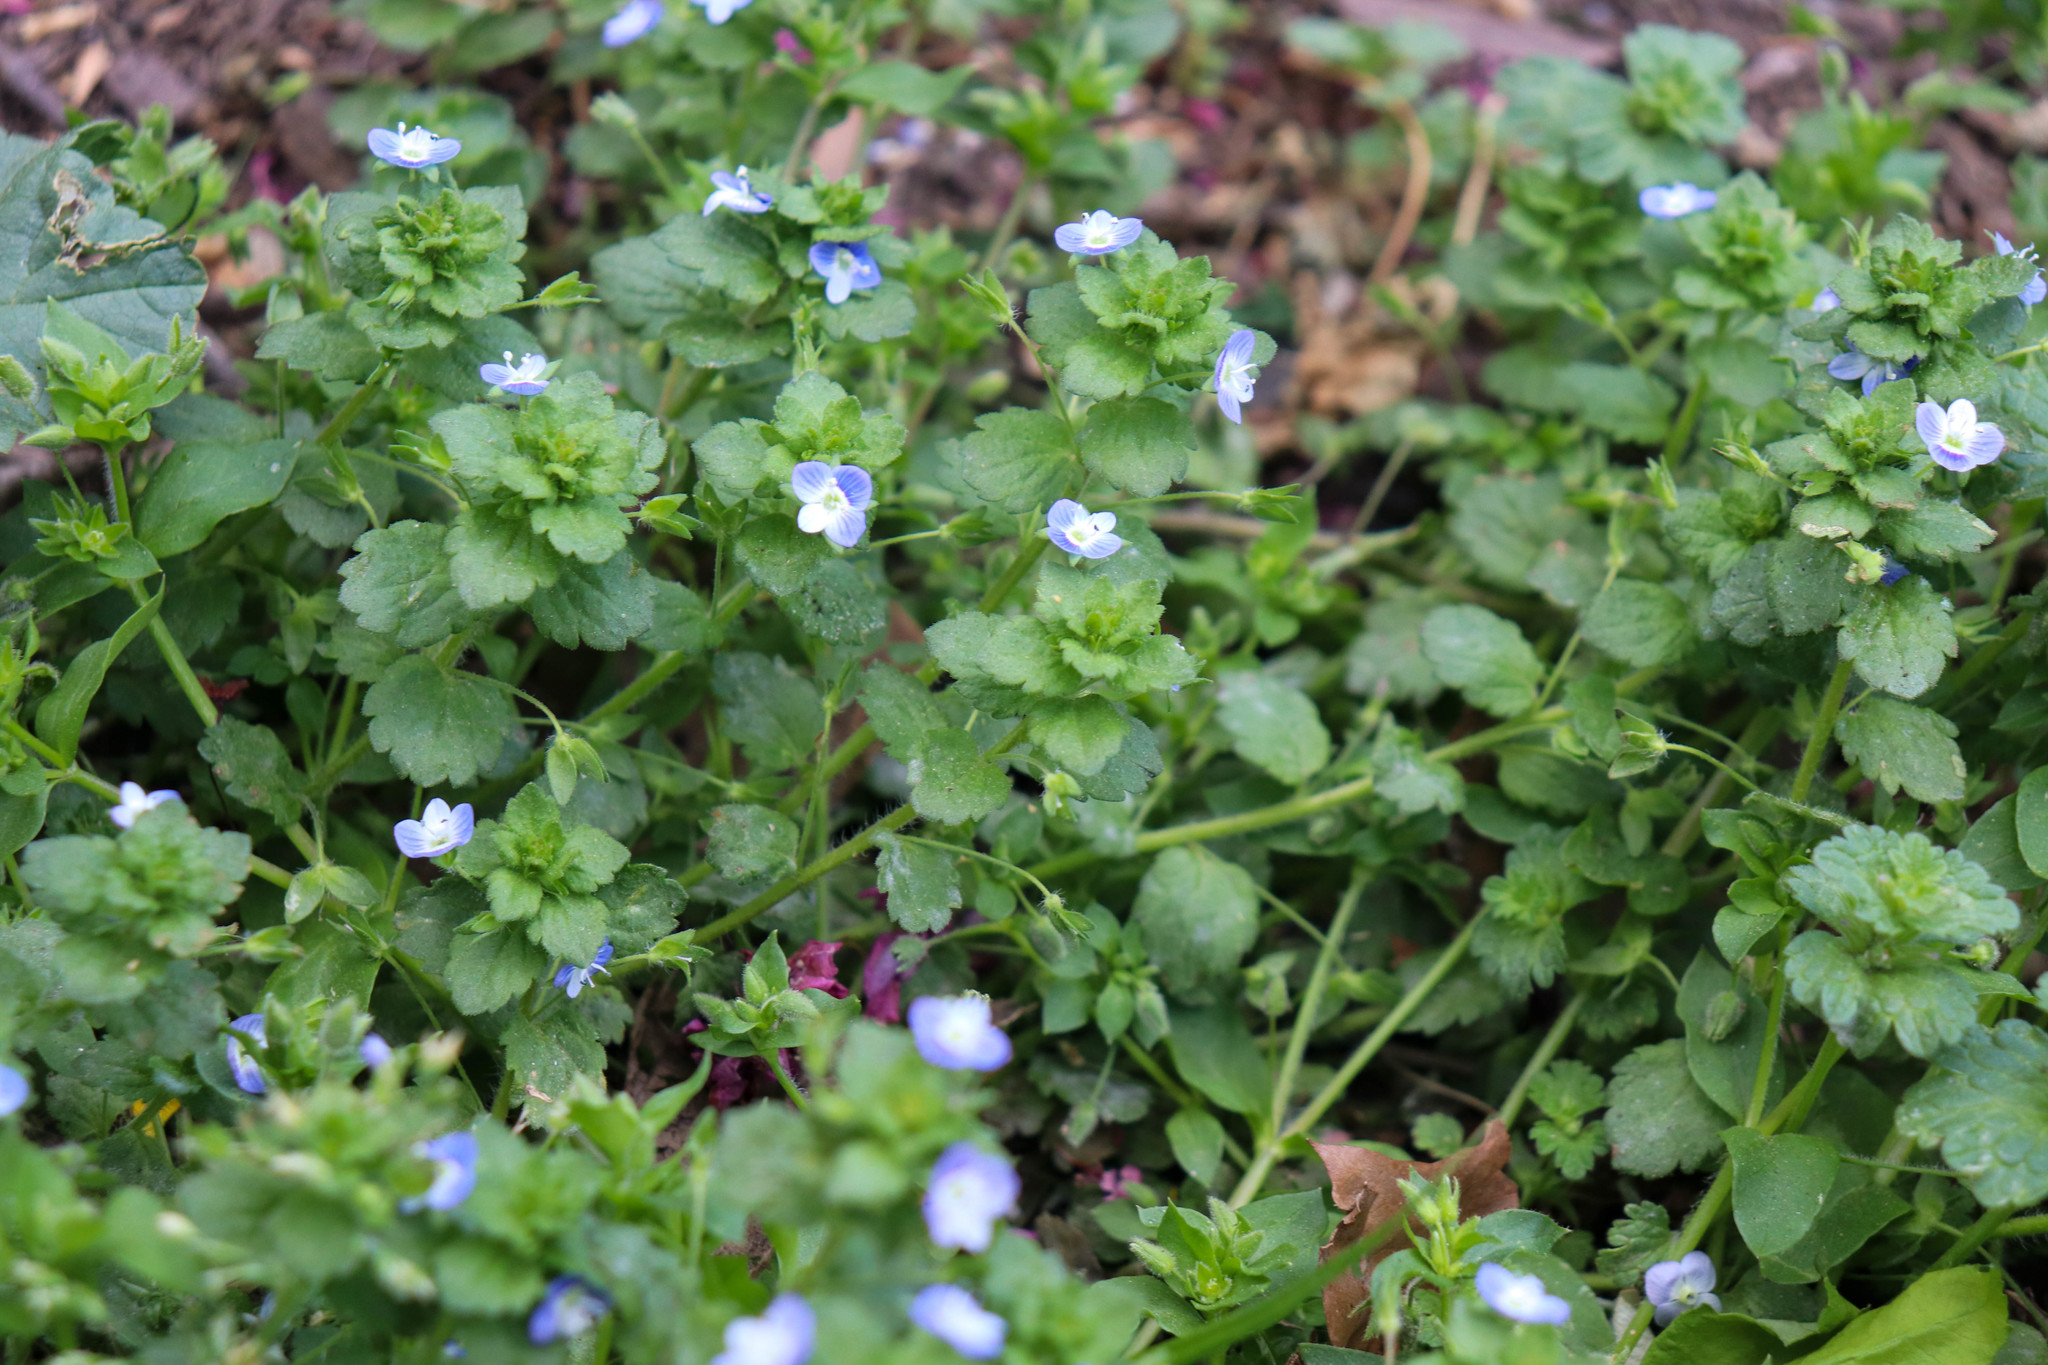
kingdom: Plantae
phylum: Tracheophyta
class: Magnoliopsida
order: Lamiales
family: Plantaginaceae
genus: Veronica
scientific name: Veronica persica
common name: Common field-speedwell
